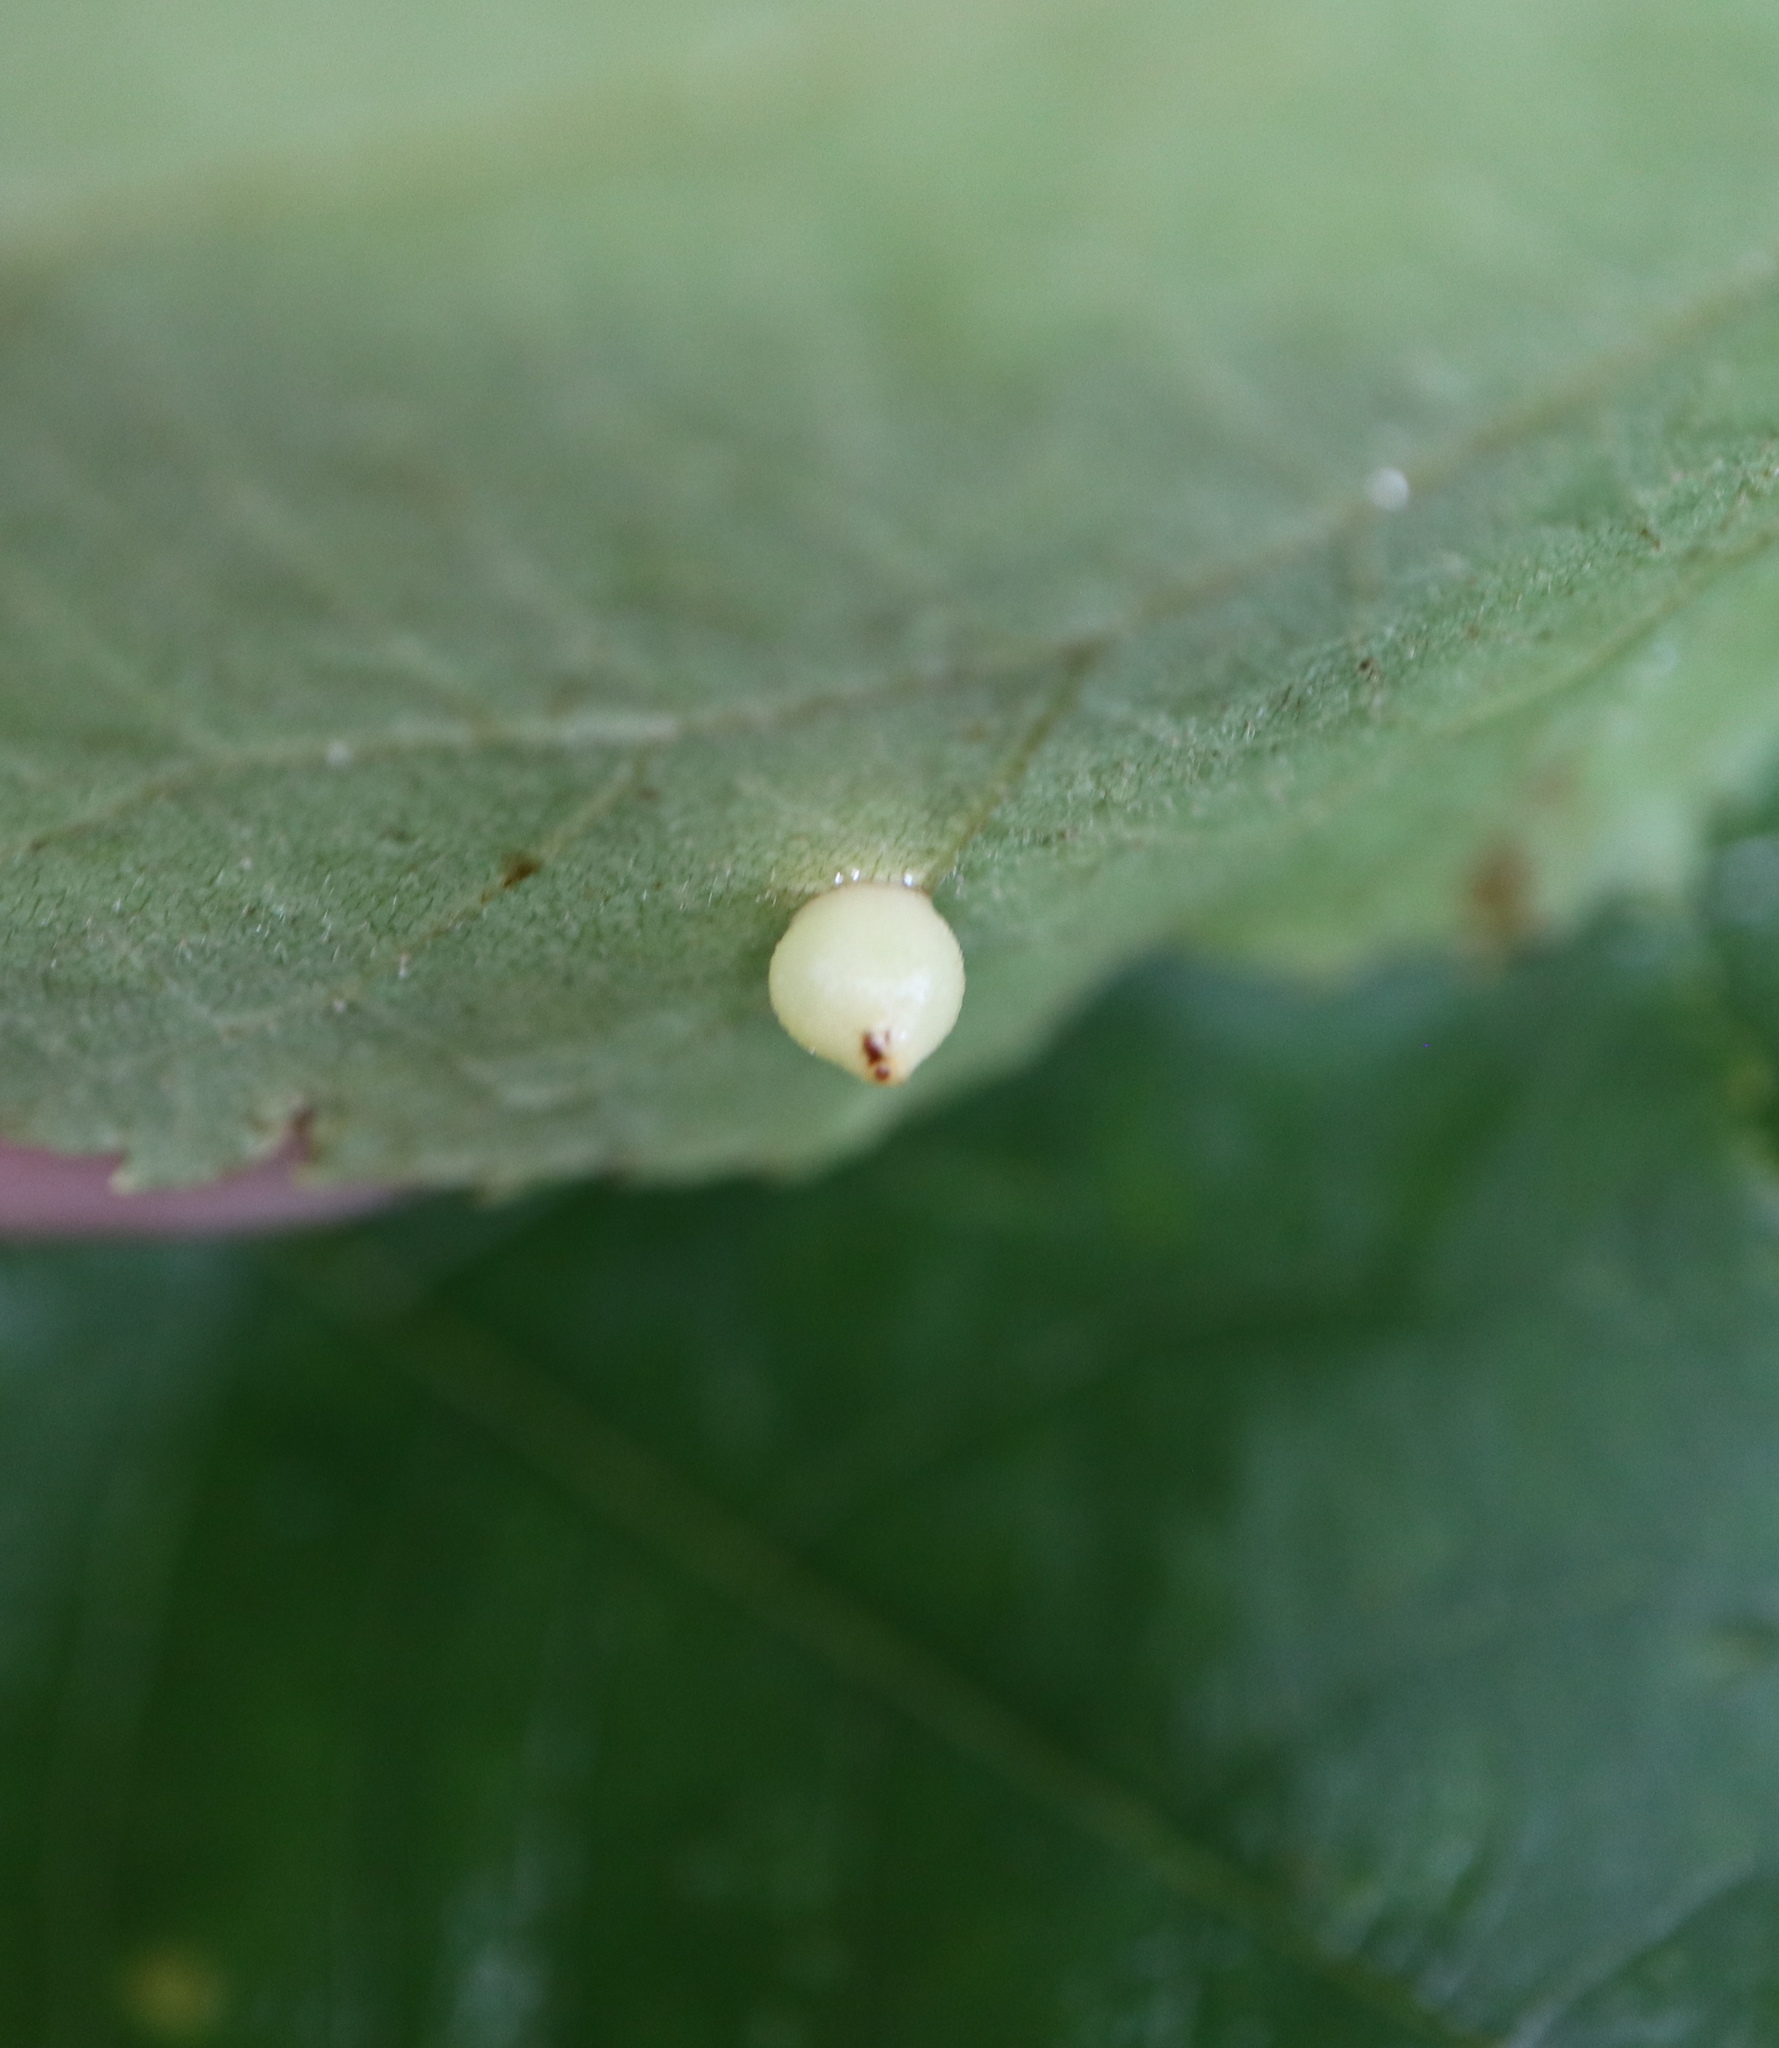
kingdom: Animalia
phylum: Arthropoda
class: Insecta
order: Diptera
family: Cecidomyiidae
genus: Caryomyia
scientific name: Caryomyia caryae
